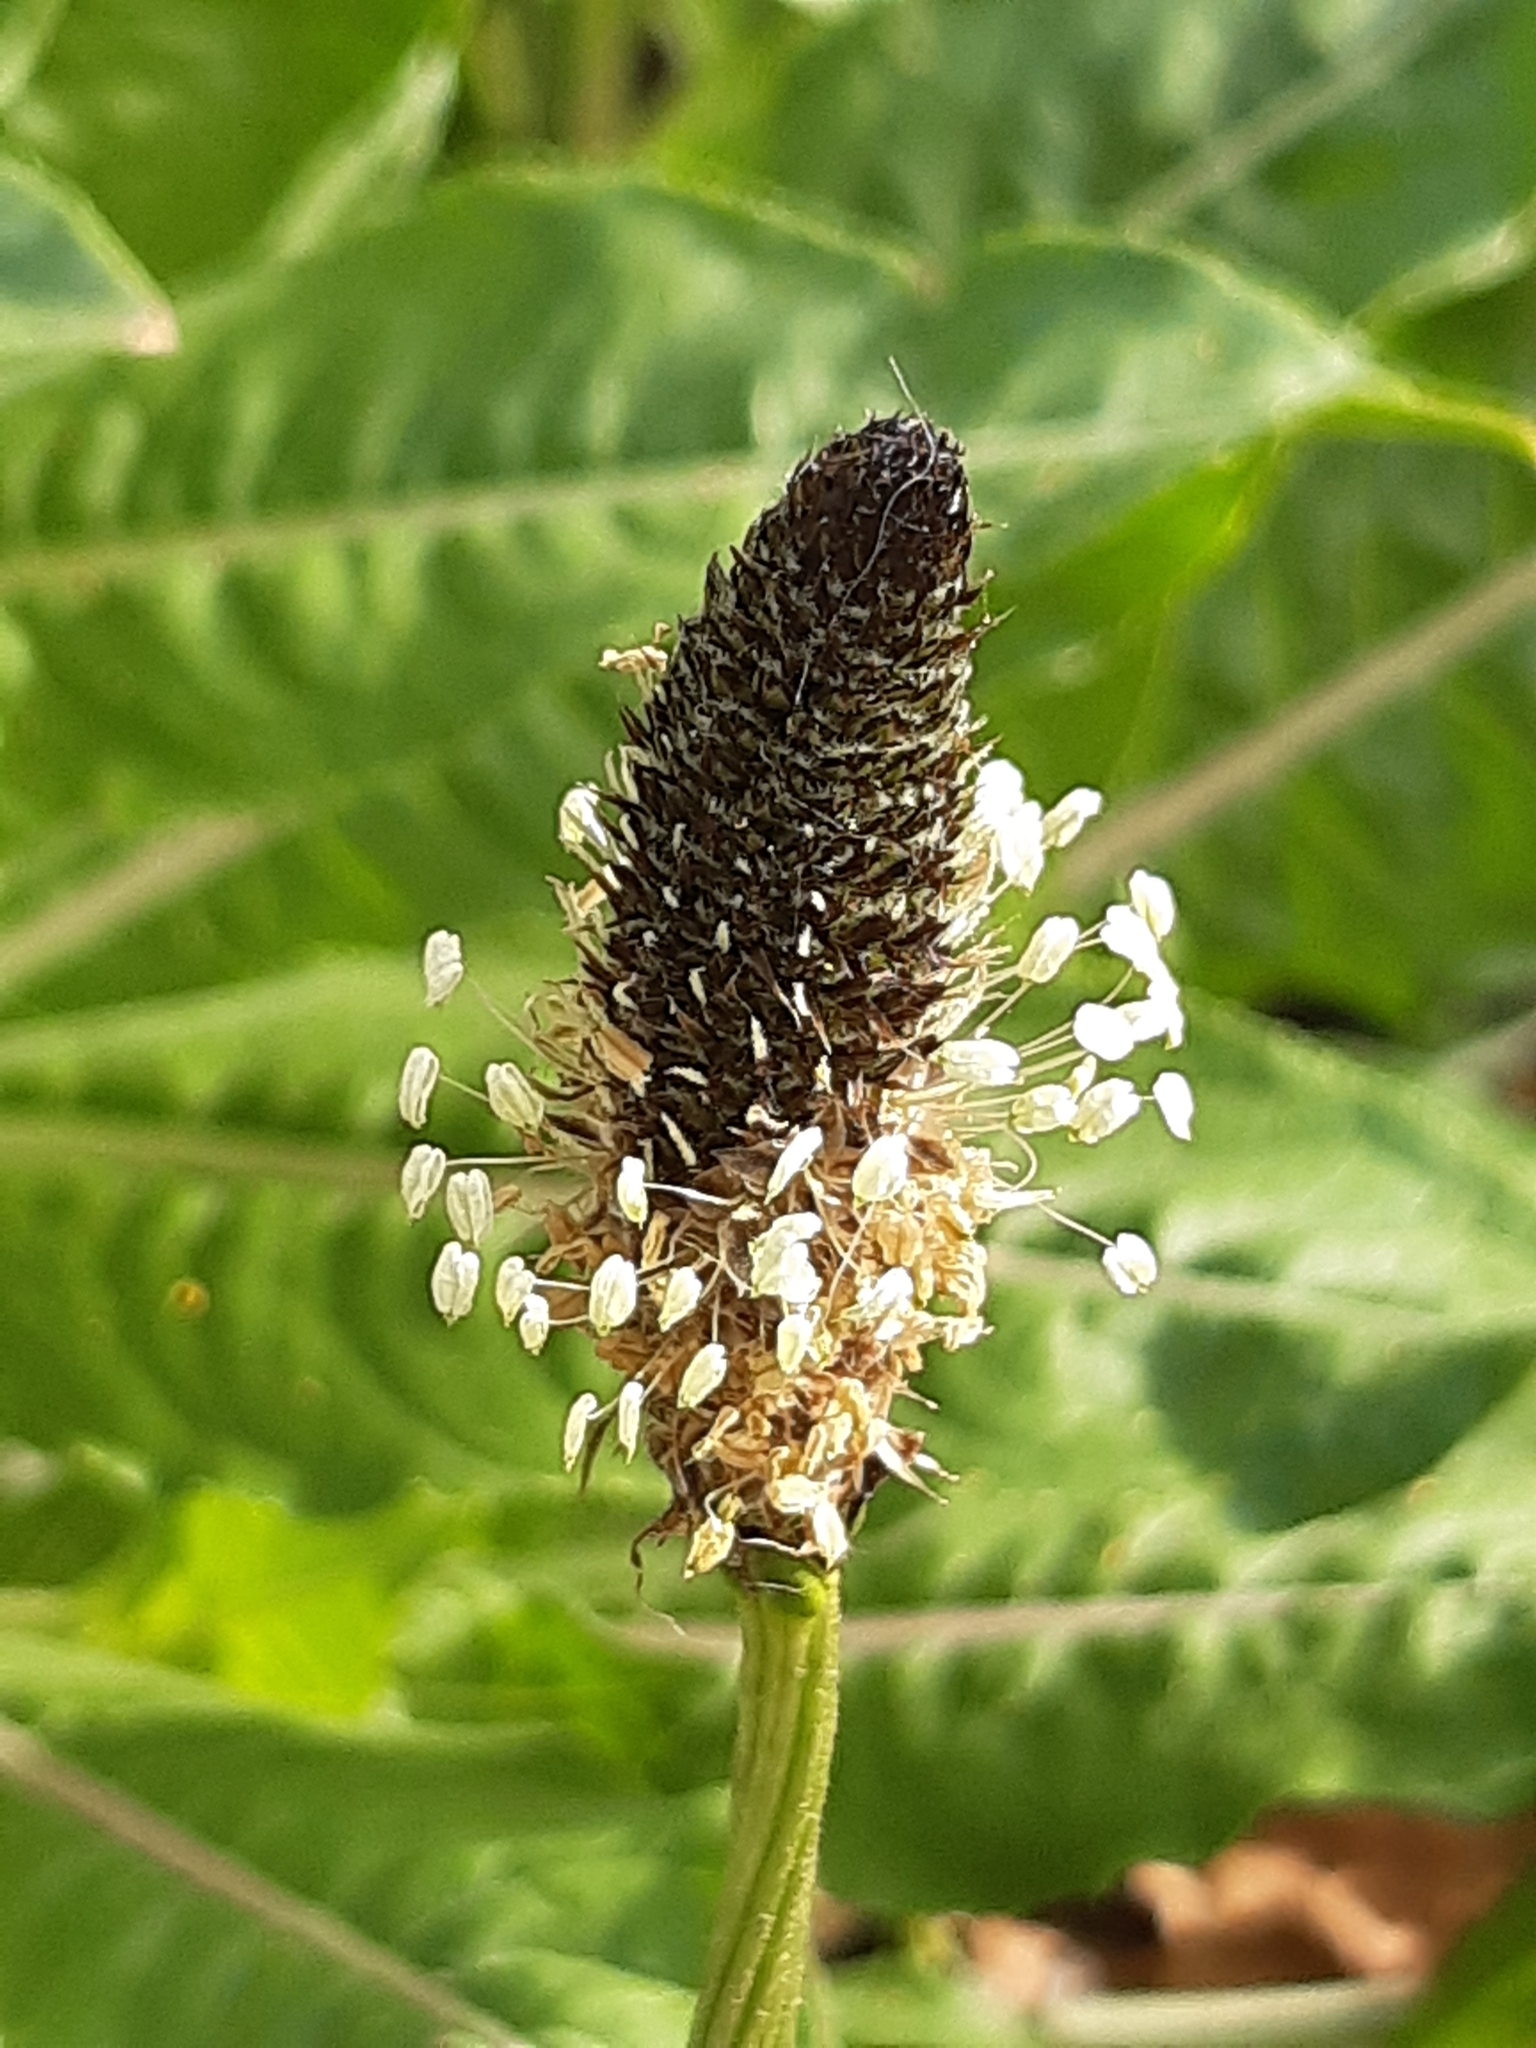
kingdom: Plantae
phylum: Tracheophyta
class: Magnoliopsida
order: Lamiales
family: Plantaginaceae
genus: Plantago
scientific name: Plantago lanceolata
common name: Ribwort plantain
